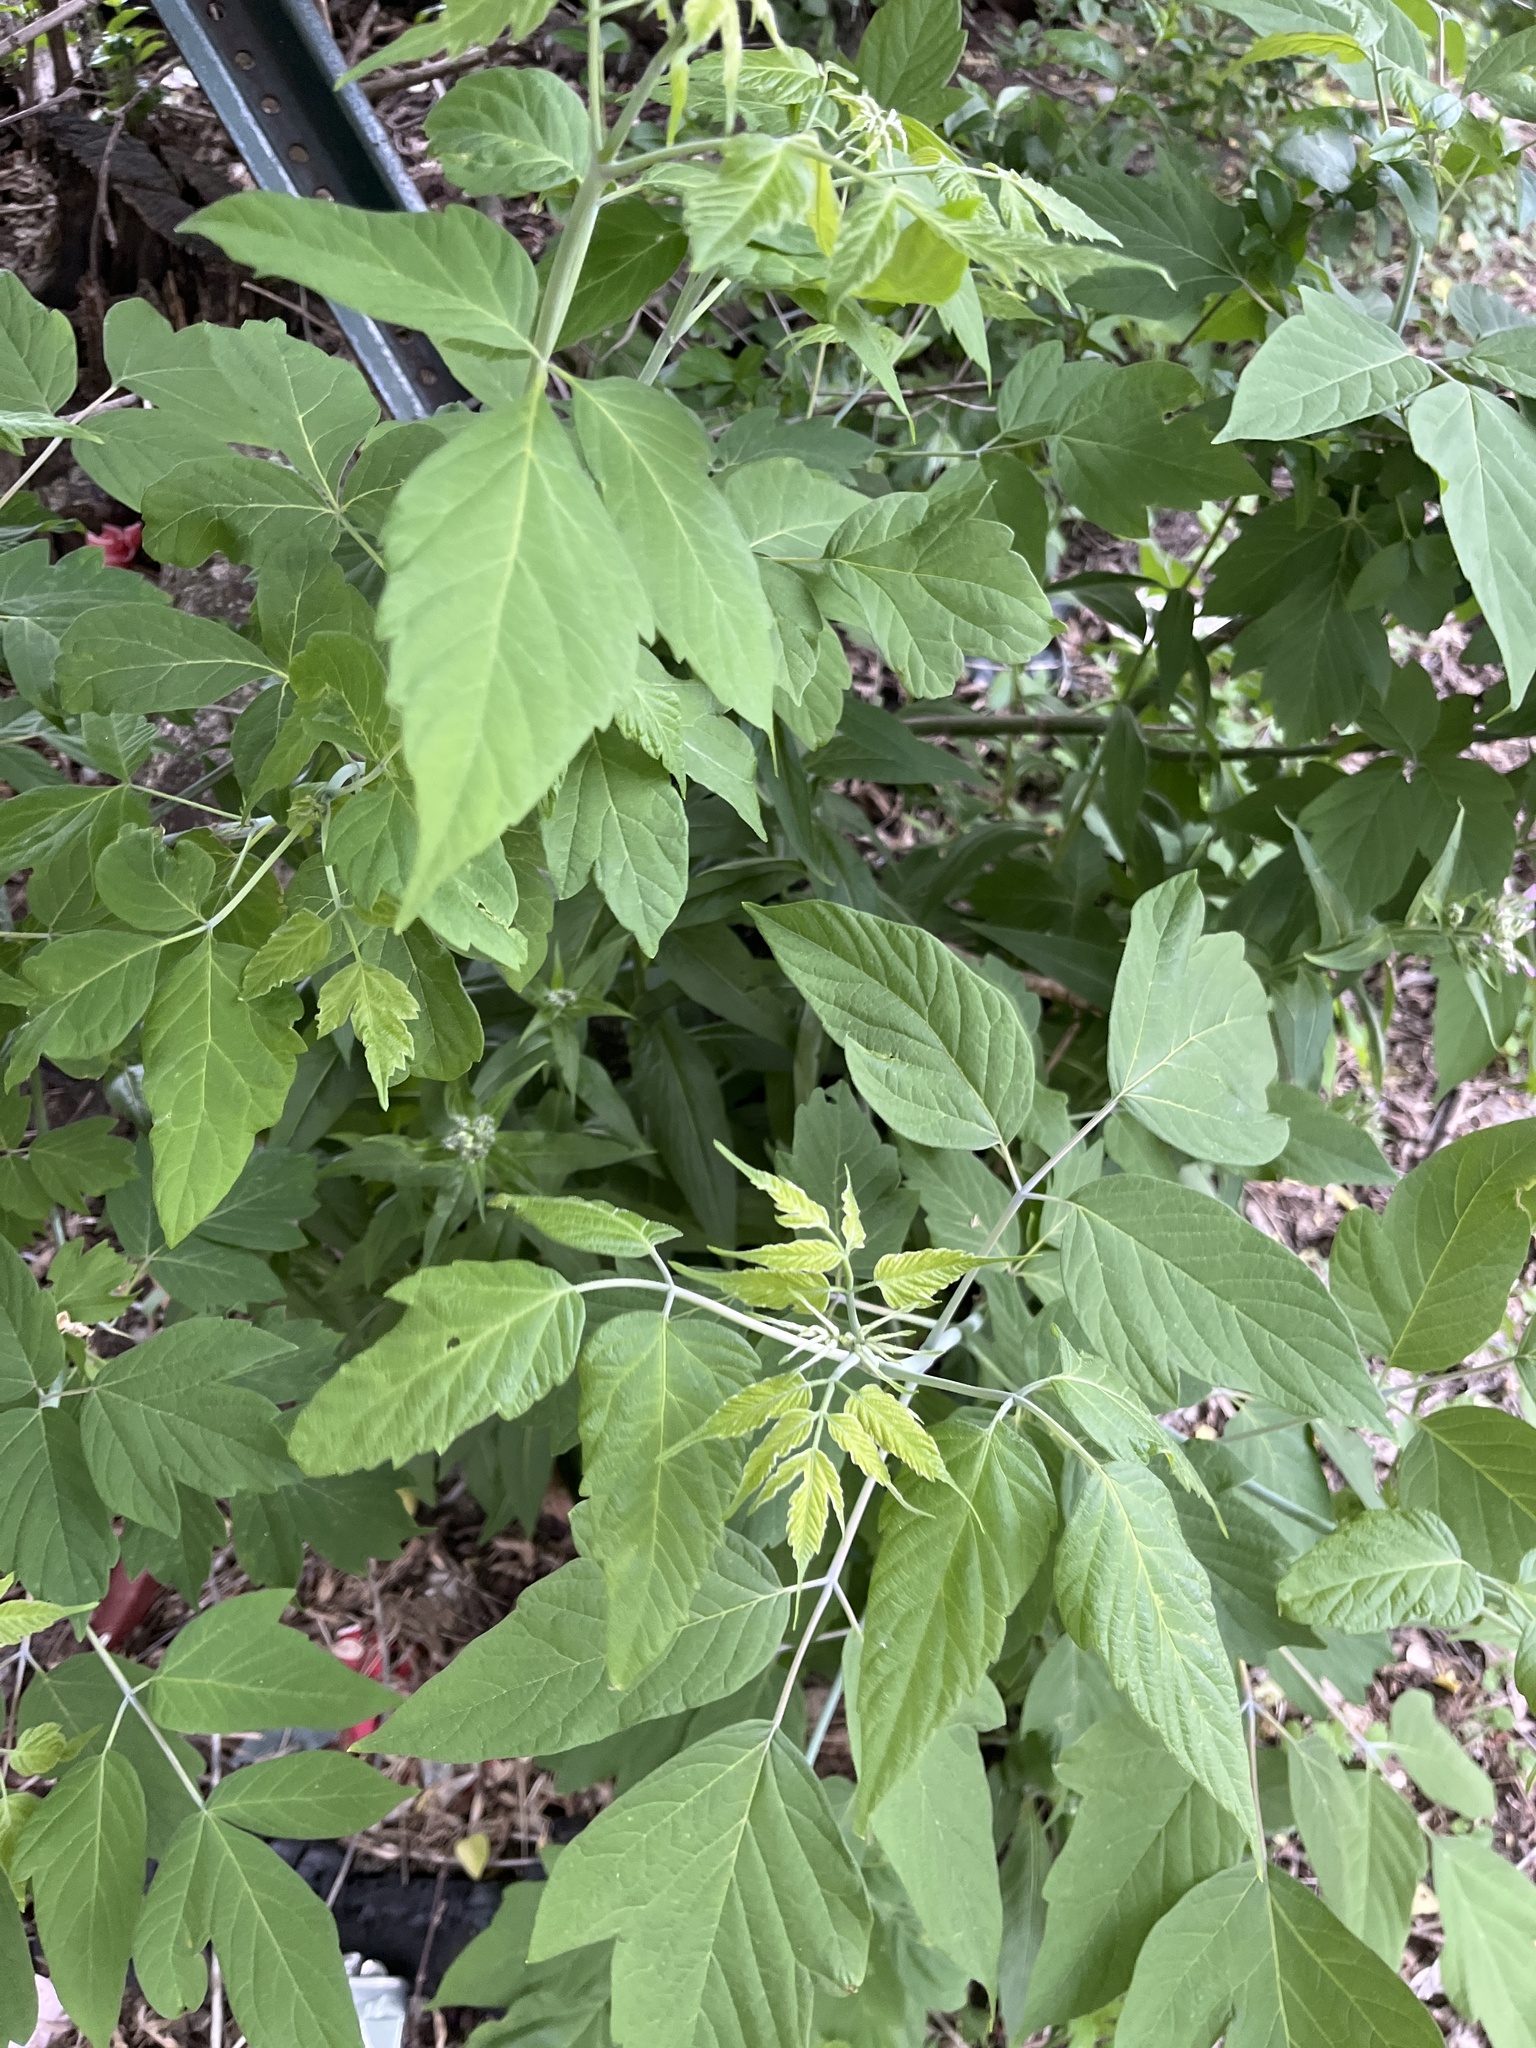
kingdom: Plantae
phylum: Tracheophyta
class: Magnoliopsida
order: Sapindales
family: Sapindaceae
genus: Acer
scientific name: Acer negundo
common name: Ashleaf maple
